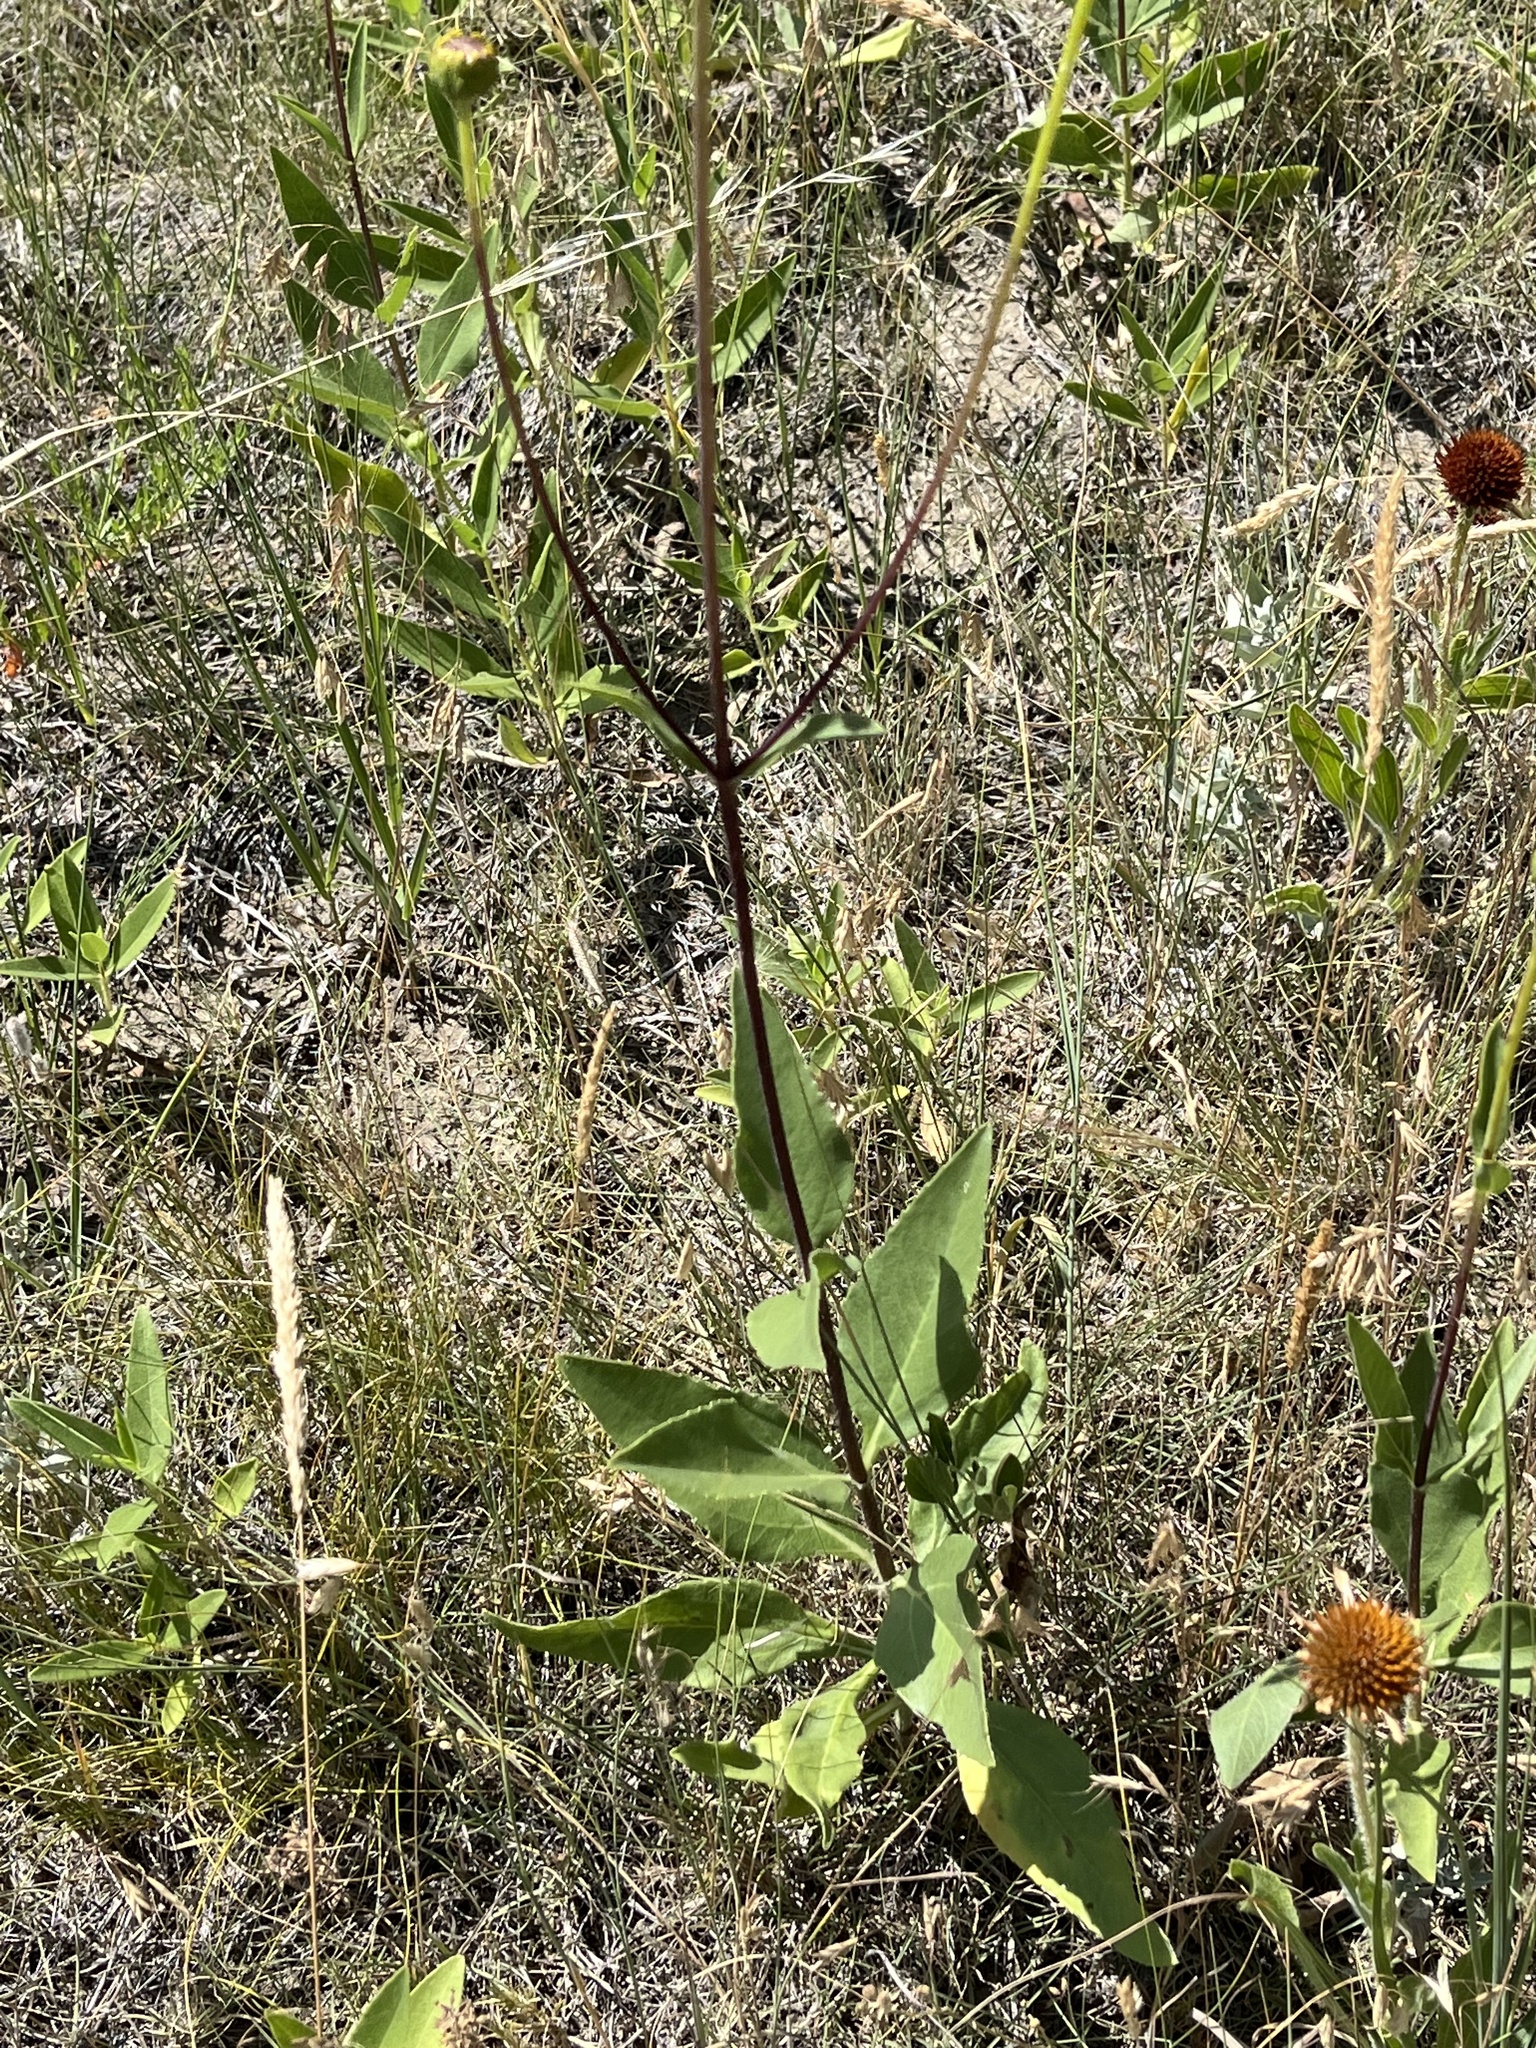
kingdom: Plantae
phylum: Tracheophyta
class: Magnoliopsida
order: Asterales
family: Asteraceae
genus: Helianthus
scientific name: Helianthus petiolaris
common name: Lesser sunflower
